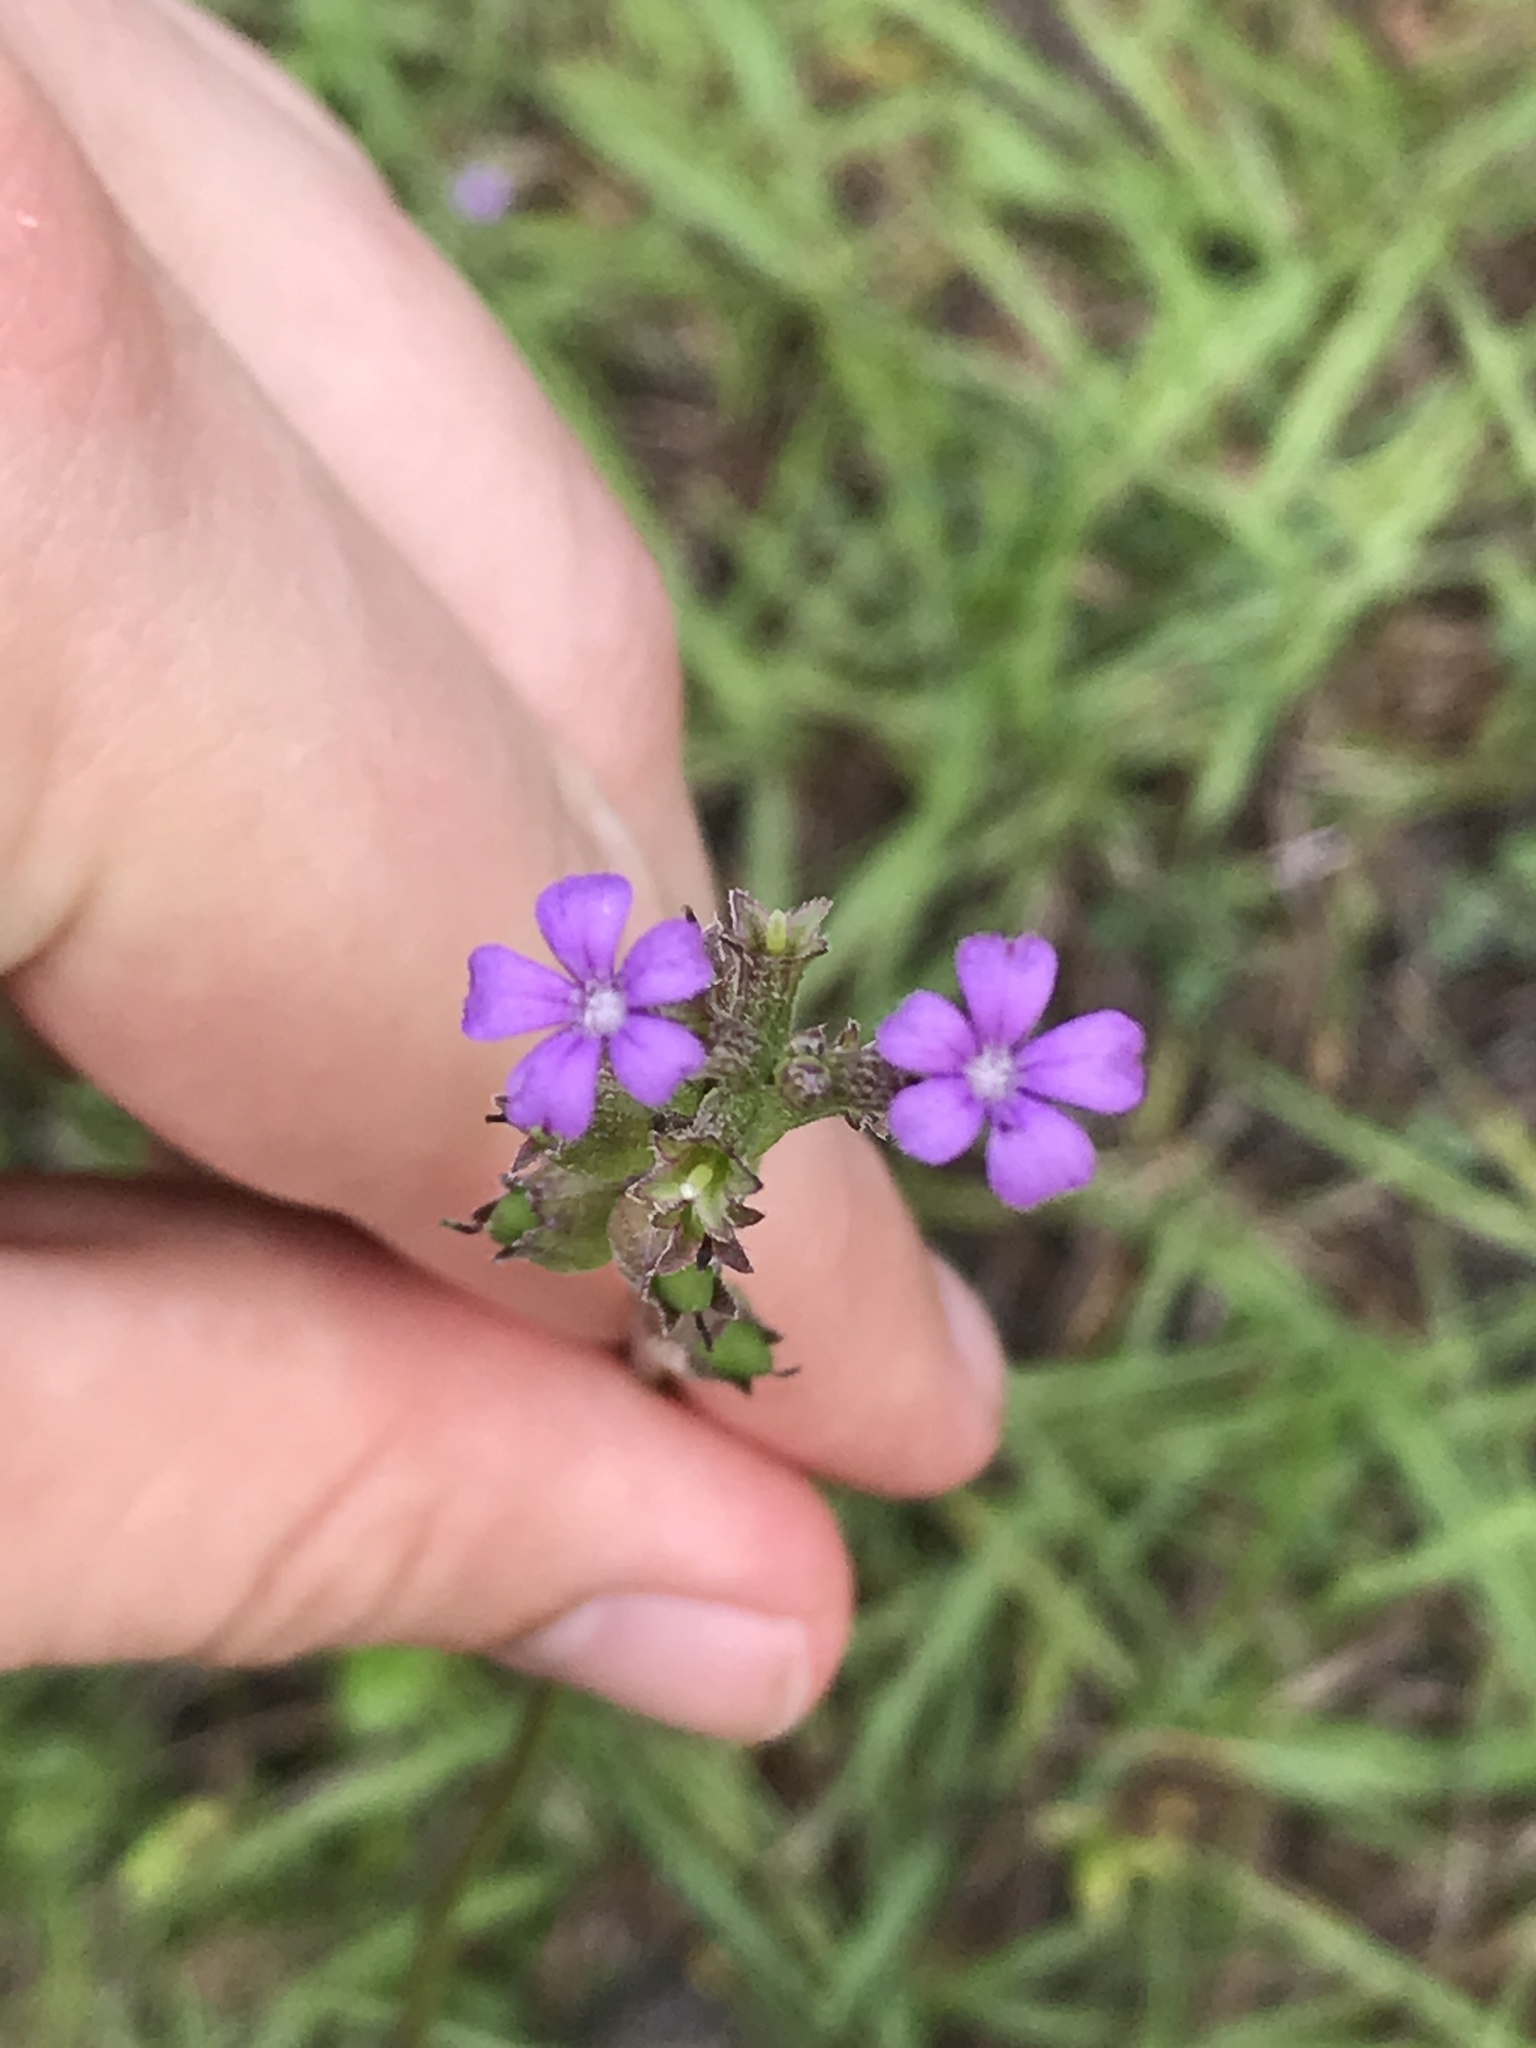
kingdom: Plantae
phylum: Tracheophyta
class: Magnoliopsida
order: Lamiales
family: Orobanchaceae
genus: Buchnera
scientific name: Buchnera floridana
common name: Florida bluehearts
